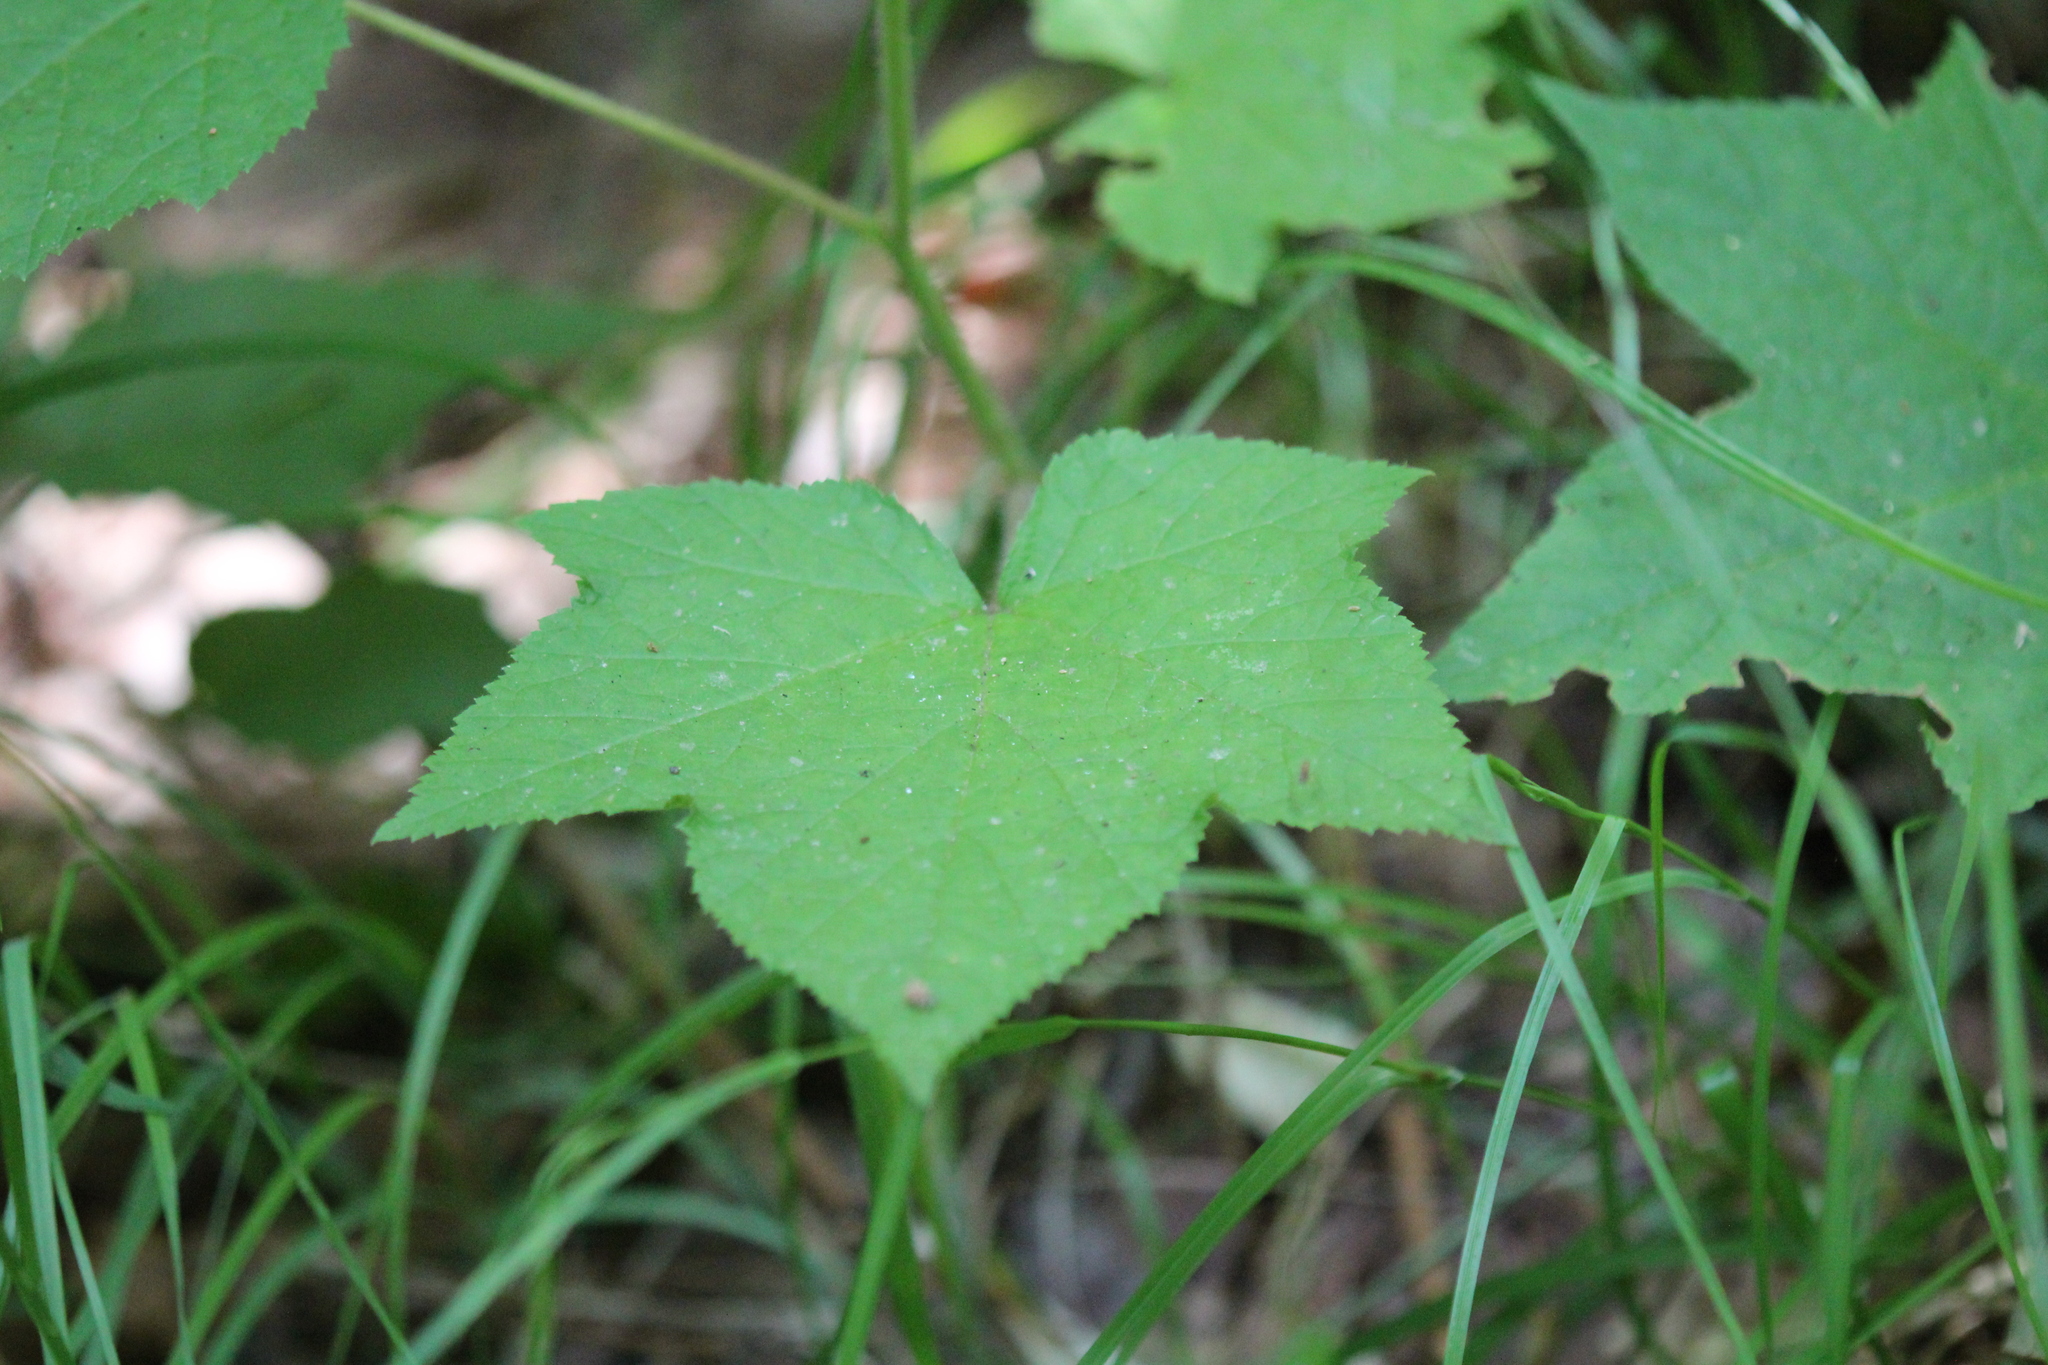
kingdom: Plantae
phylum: Tracheophyta
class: Magnoliopsida
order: Rosales
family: Rosaceae
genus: Rubus
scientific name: Rubus odoratus
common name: Purple-flowered raspberry
